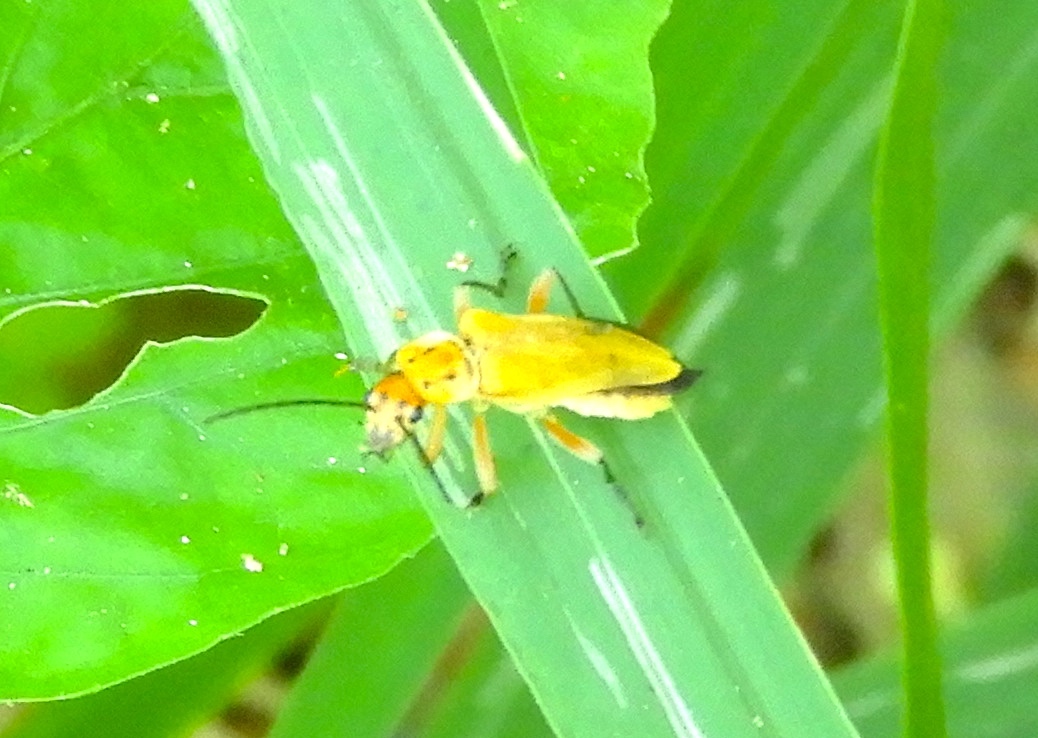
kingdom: Animalia
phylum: Arthropoda
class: Insecta
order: Coleoptera
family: Cantharidae
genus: Chauliognathus
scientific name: Chauliognathus
